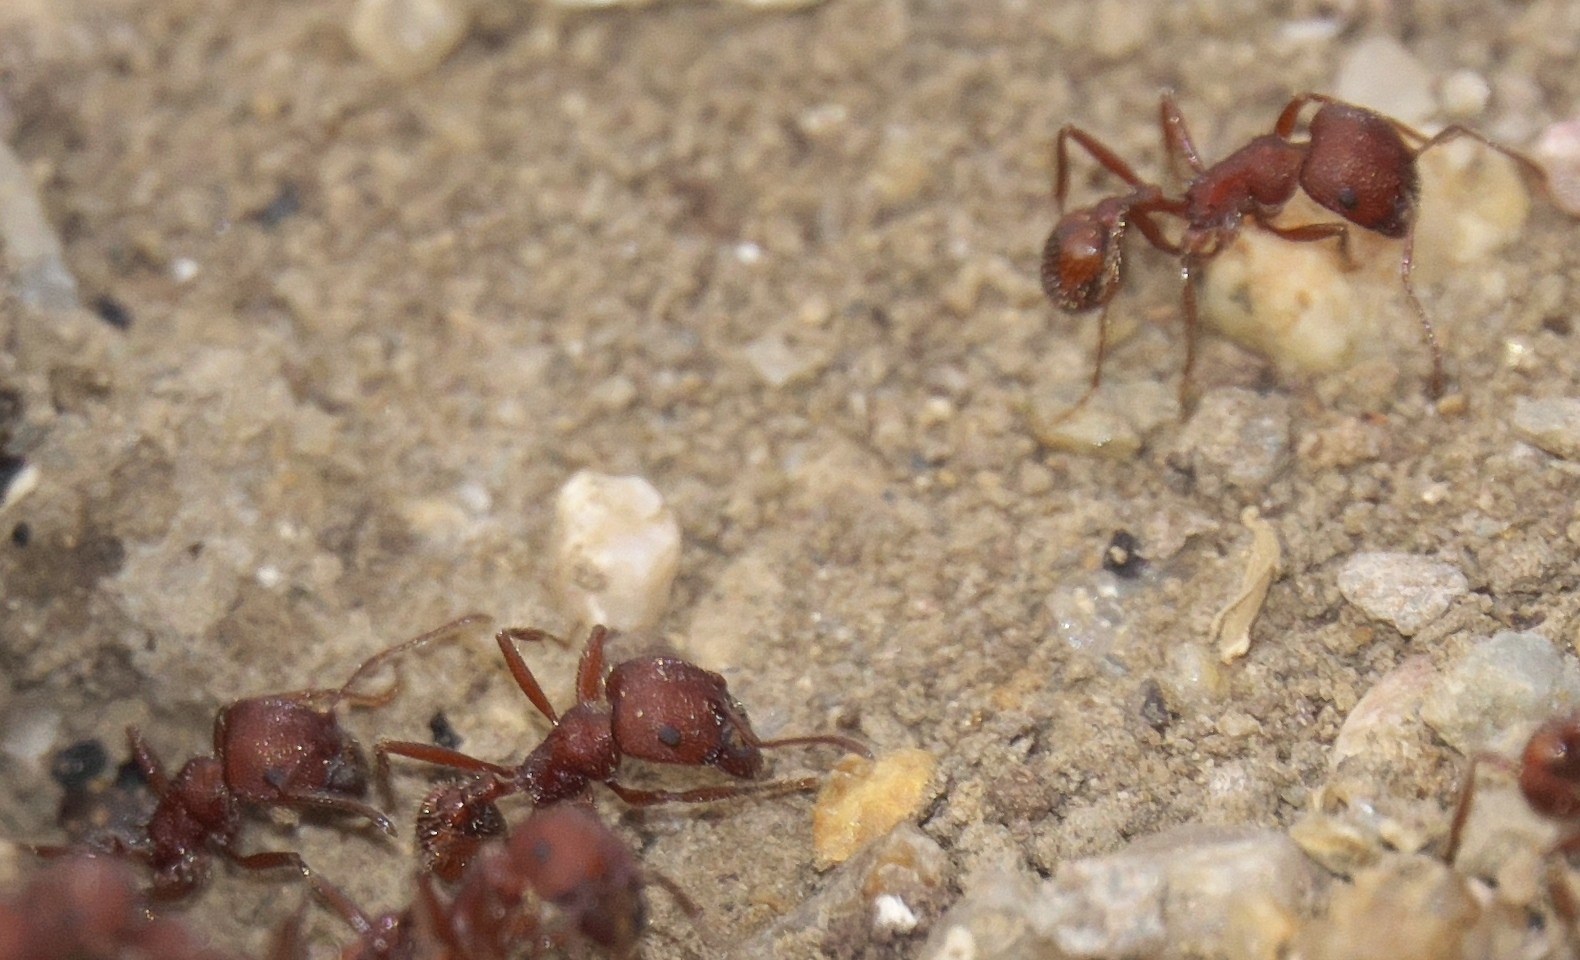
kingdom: Animalia
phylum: Arthropoda
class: Insecta
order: Hymenoptera
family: Formicidae
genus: Pogonomyrmex
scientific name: Pogonomyrmex occidentalis
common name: Western harvester ant
